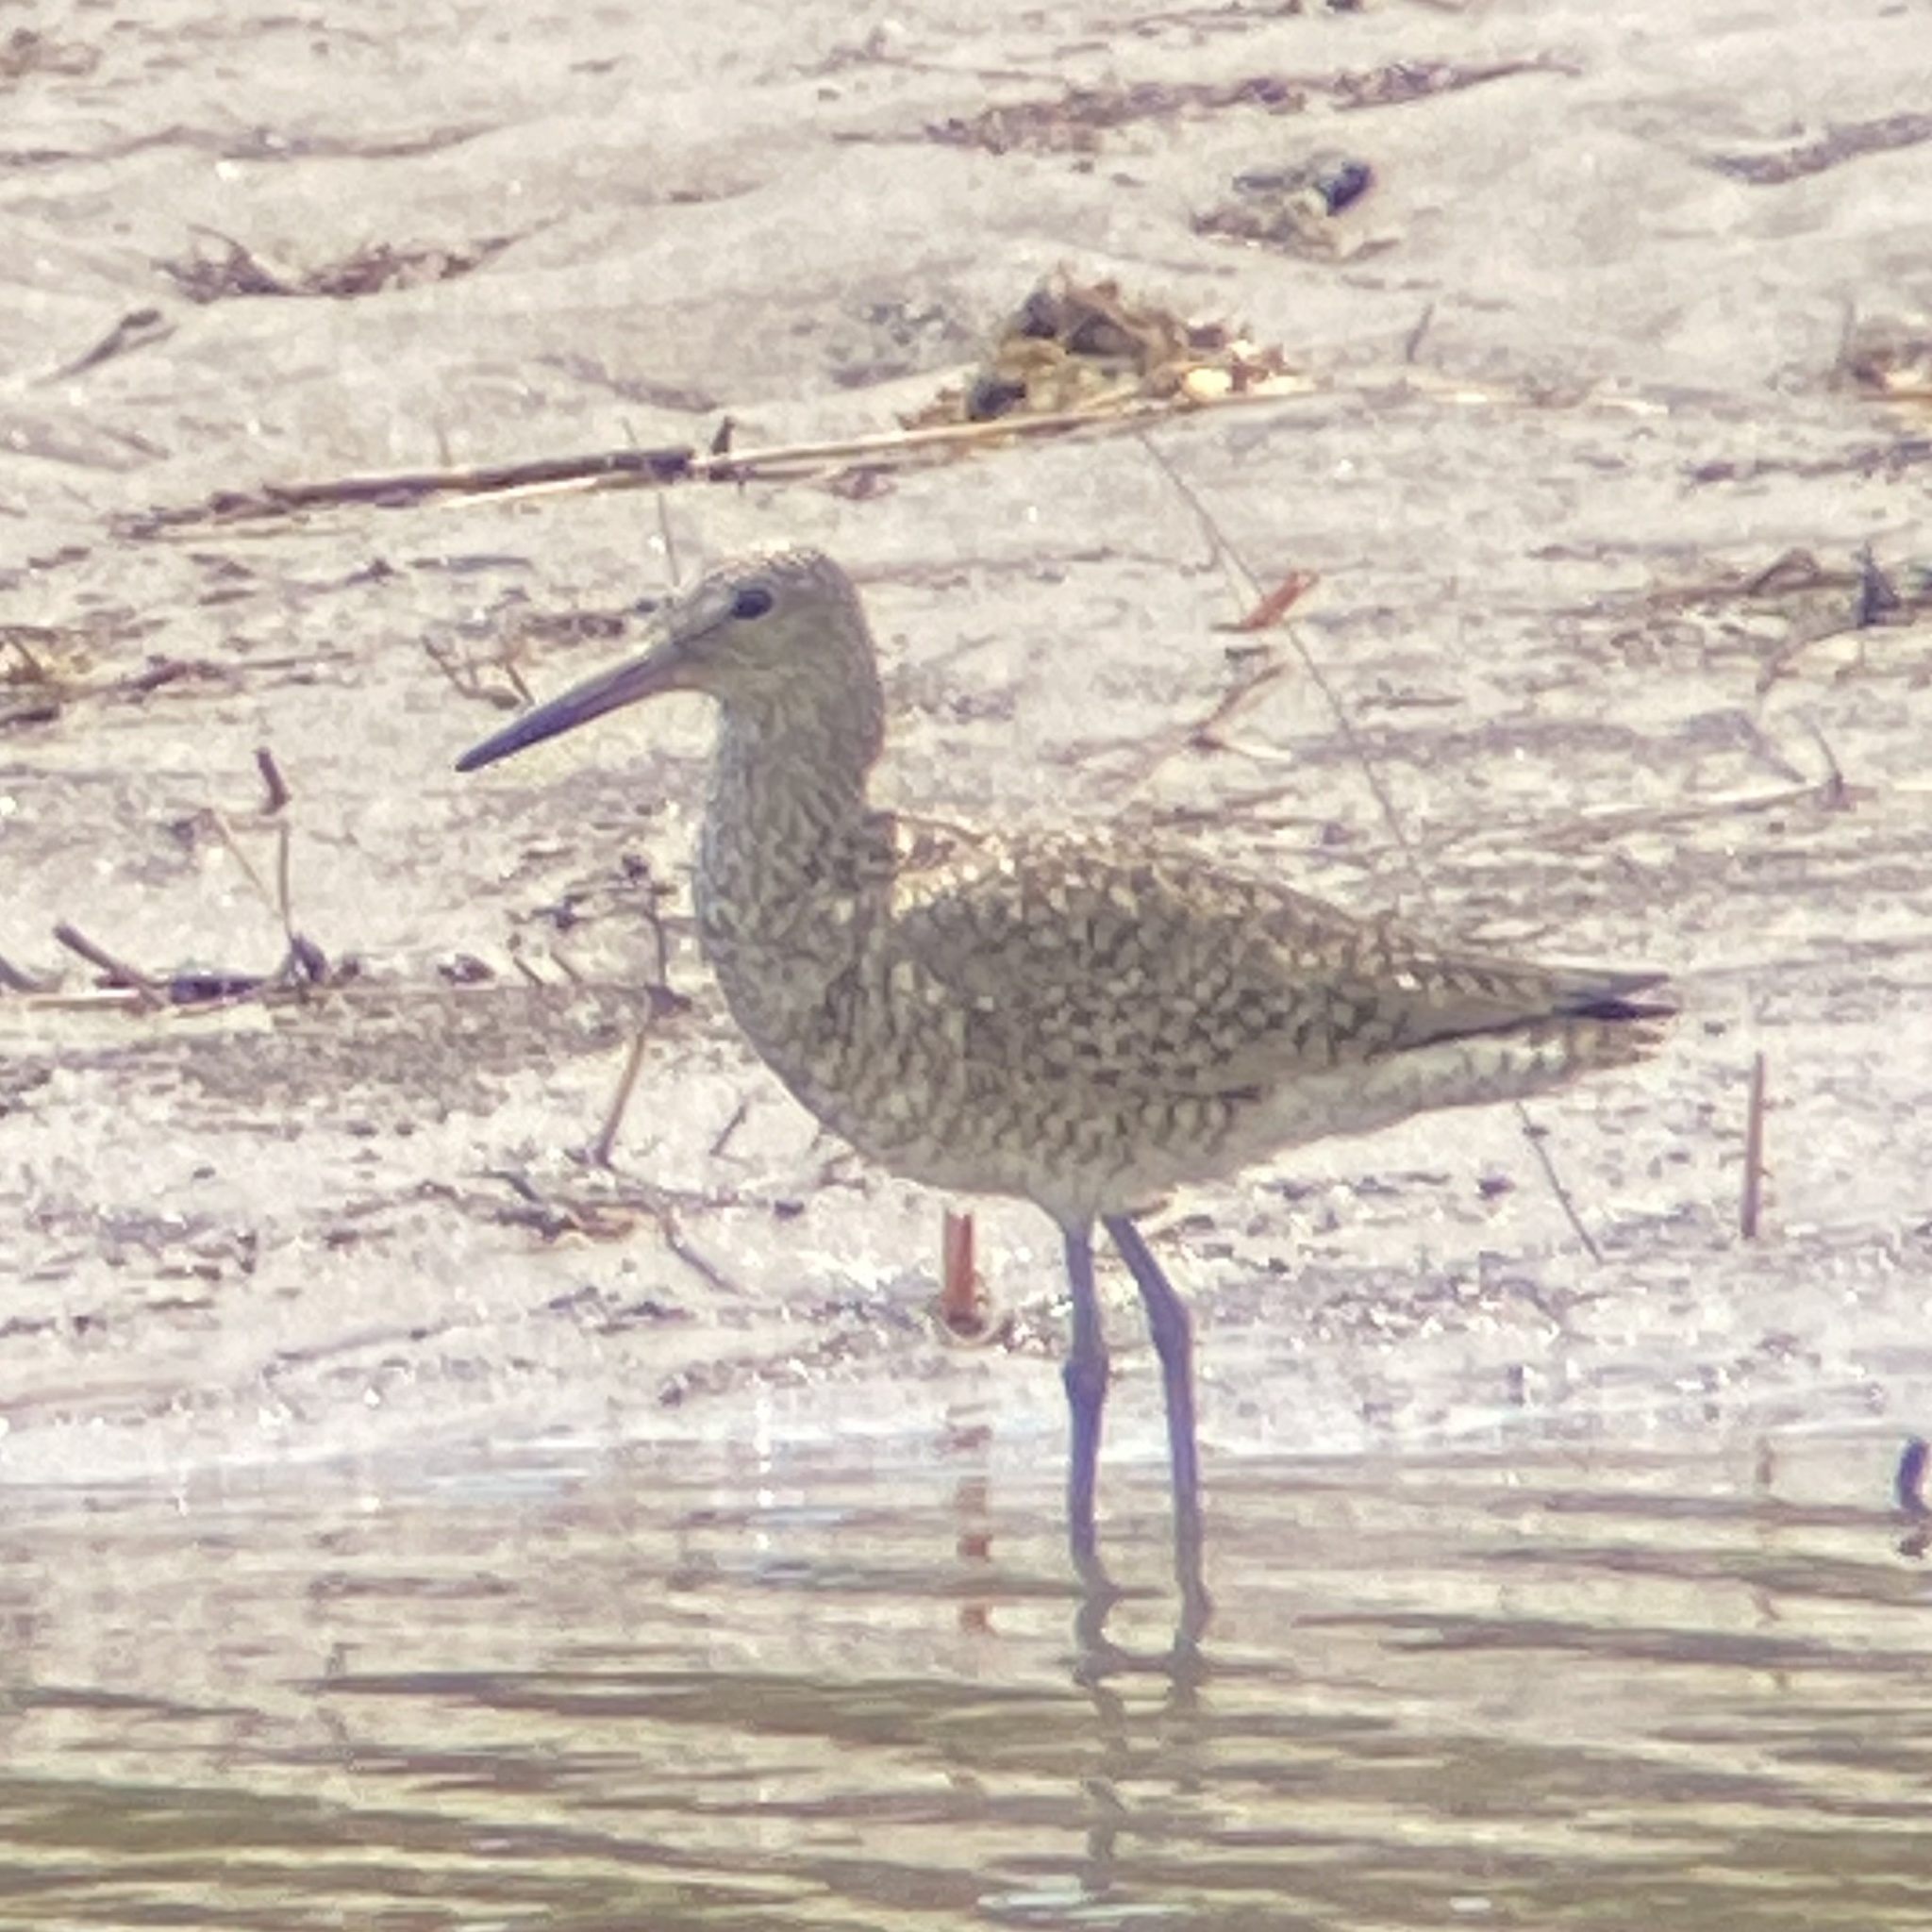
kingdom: Animalia
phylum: Chordata
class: Aves
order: Charadriiformes
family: Scolopacidae
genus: Tringa
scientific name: Tringa semipalmata
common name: Willet
